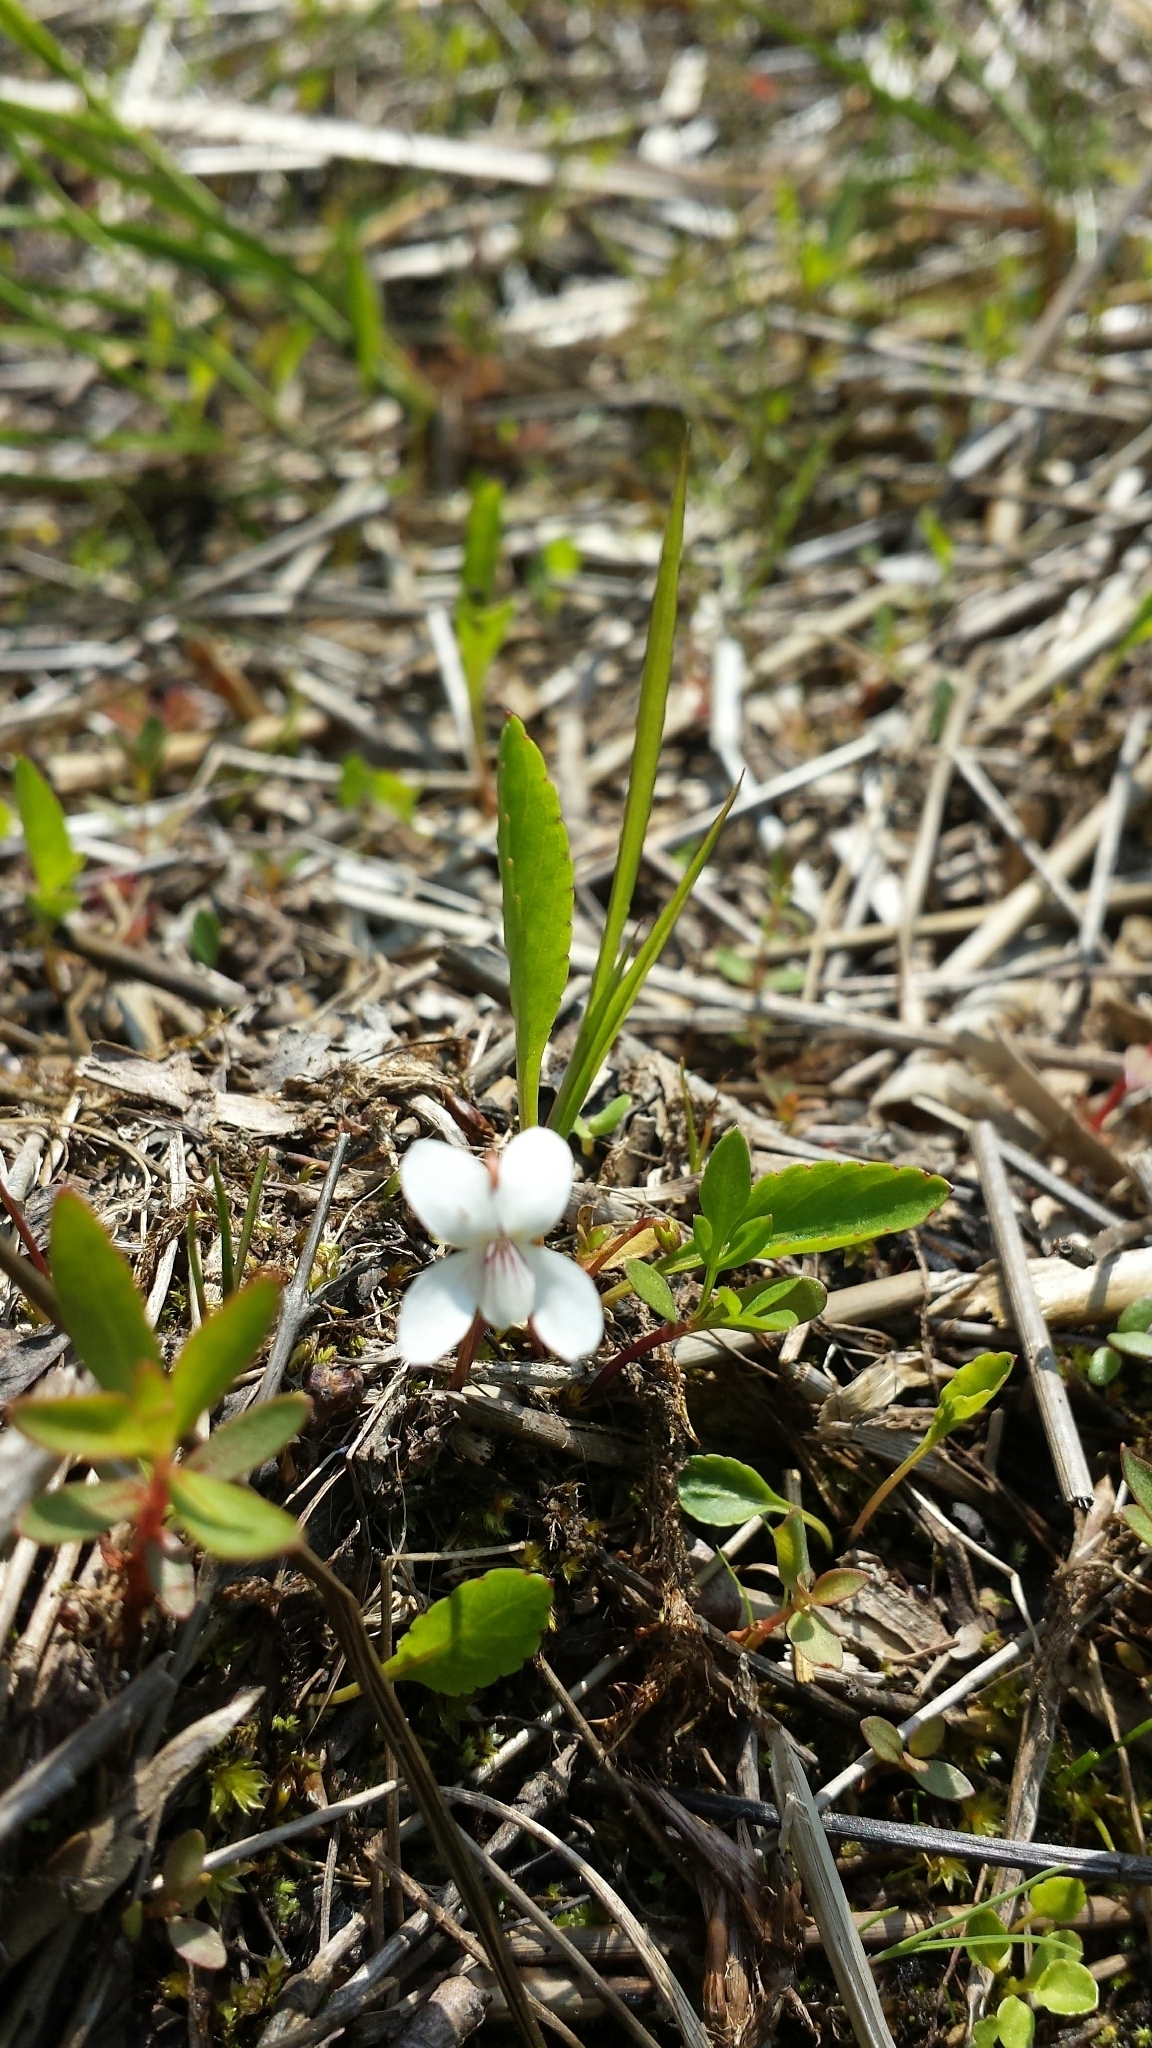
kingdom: Plantae
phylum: Tracheophyta
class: Magnoliopsida
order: Malpighiales
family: Violaceae
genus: Viola
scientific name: Viola lanceolata
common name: Bog white violet
